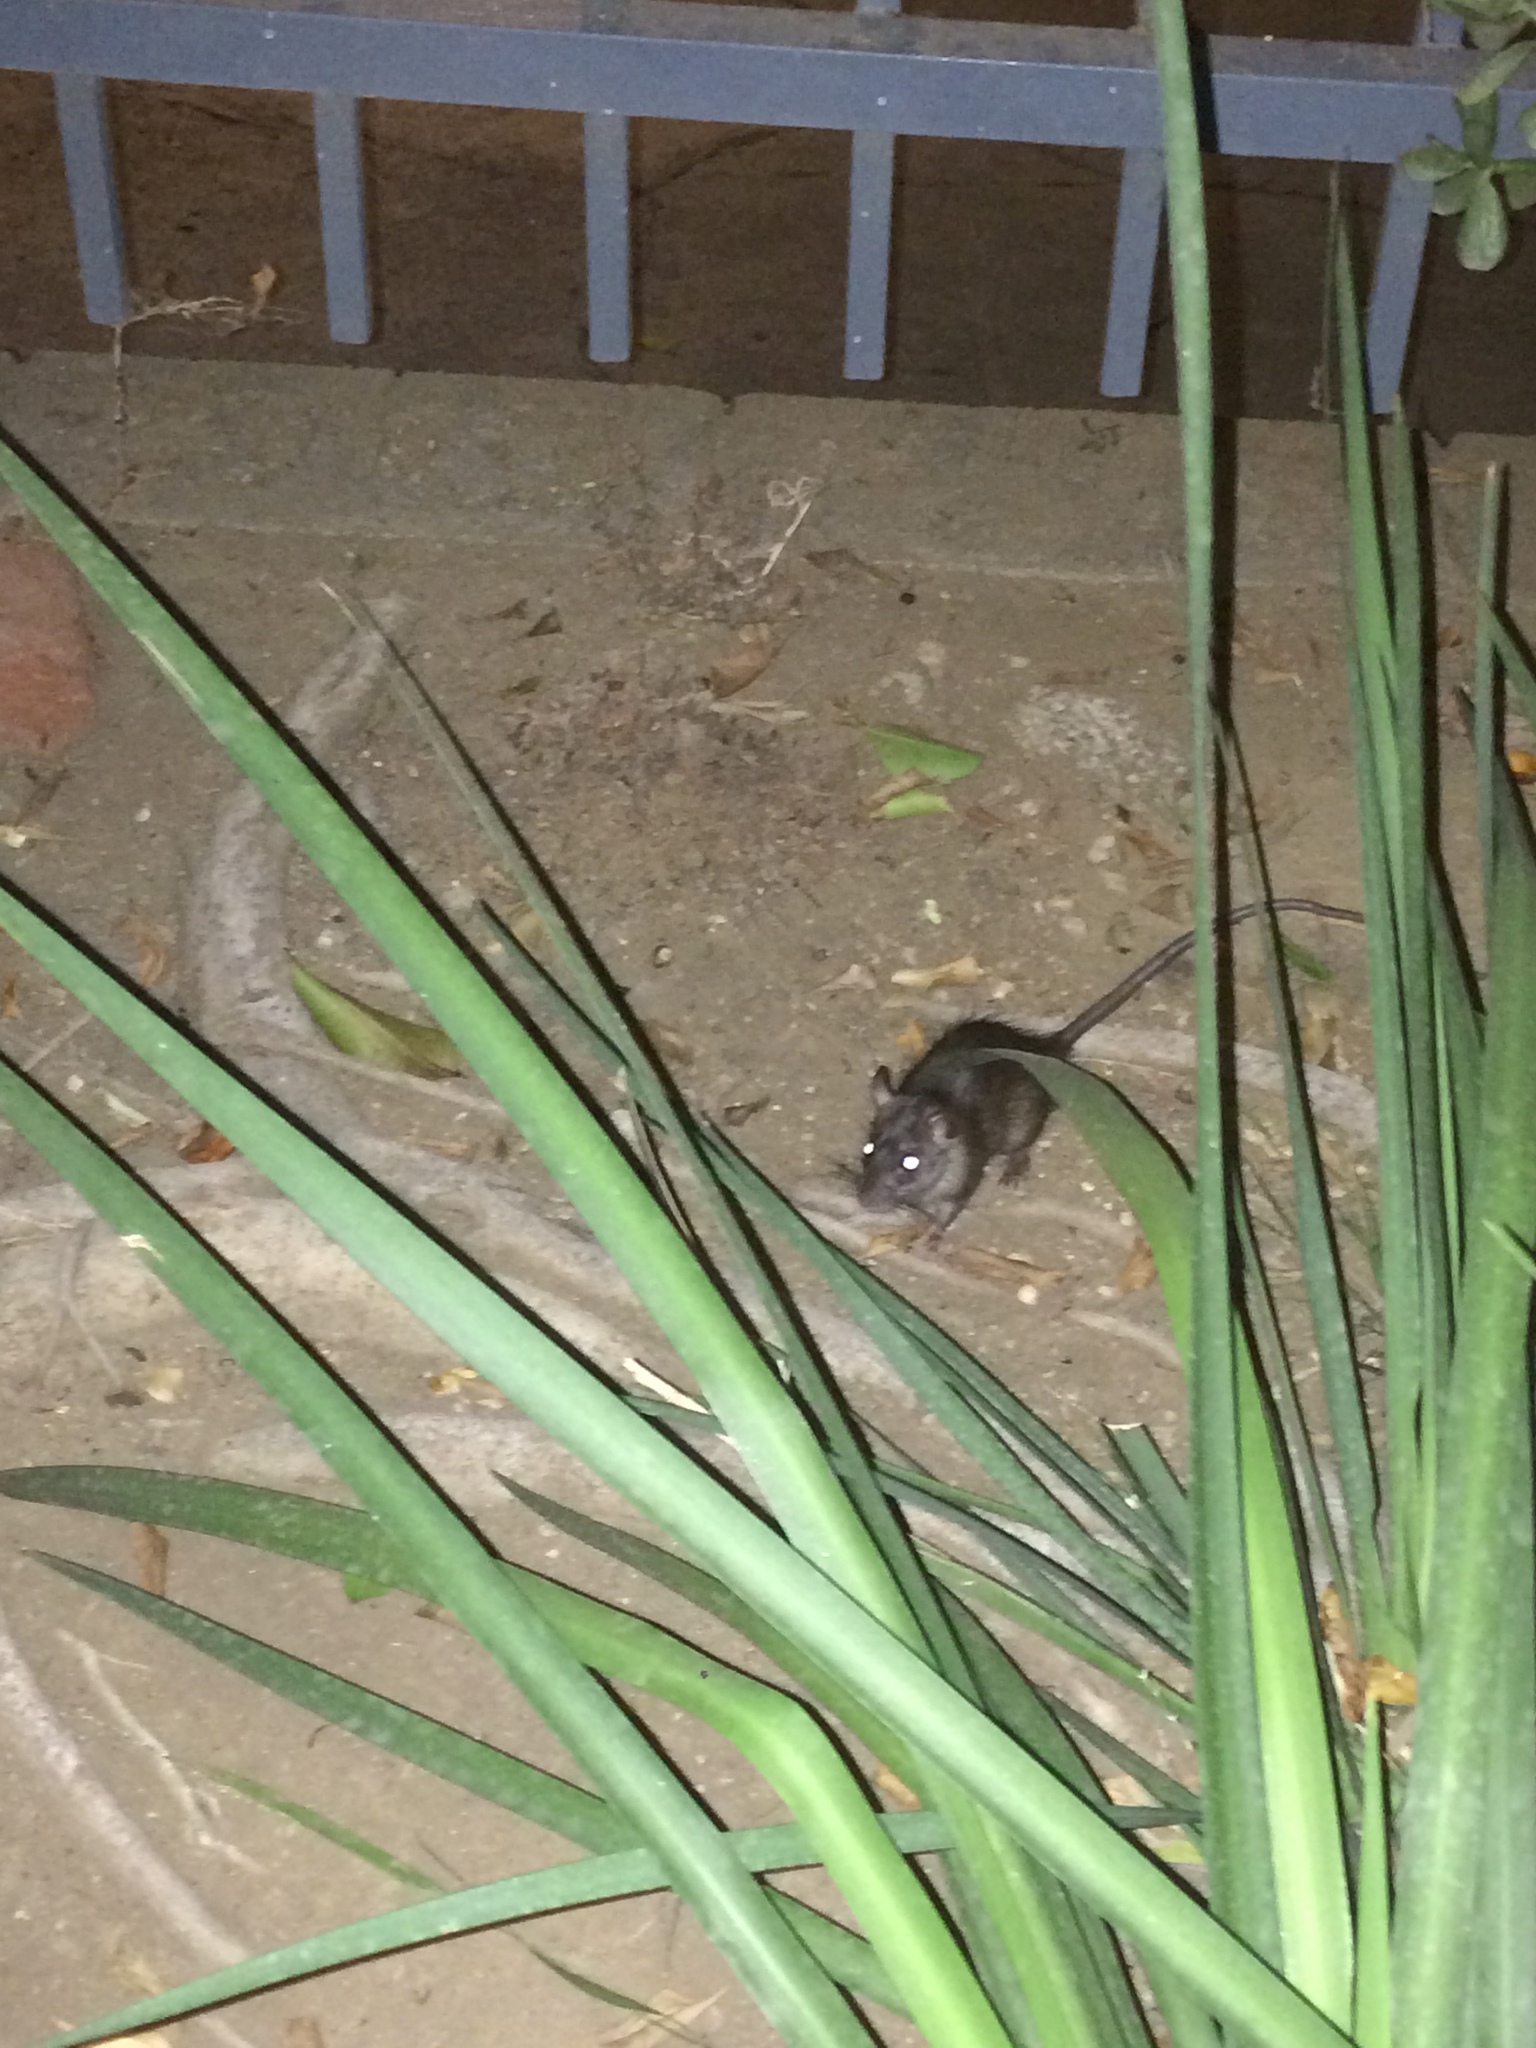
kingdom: Animalia
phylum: Chordata
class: Mammalia
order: Rodentia
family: Muridae
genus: Rattus
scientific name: Rattus rattus
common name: Black rat
